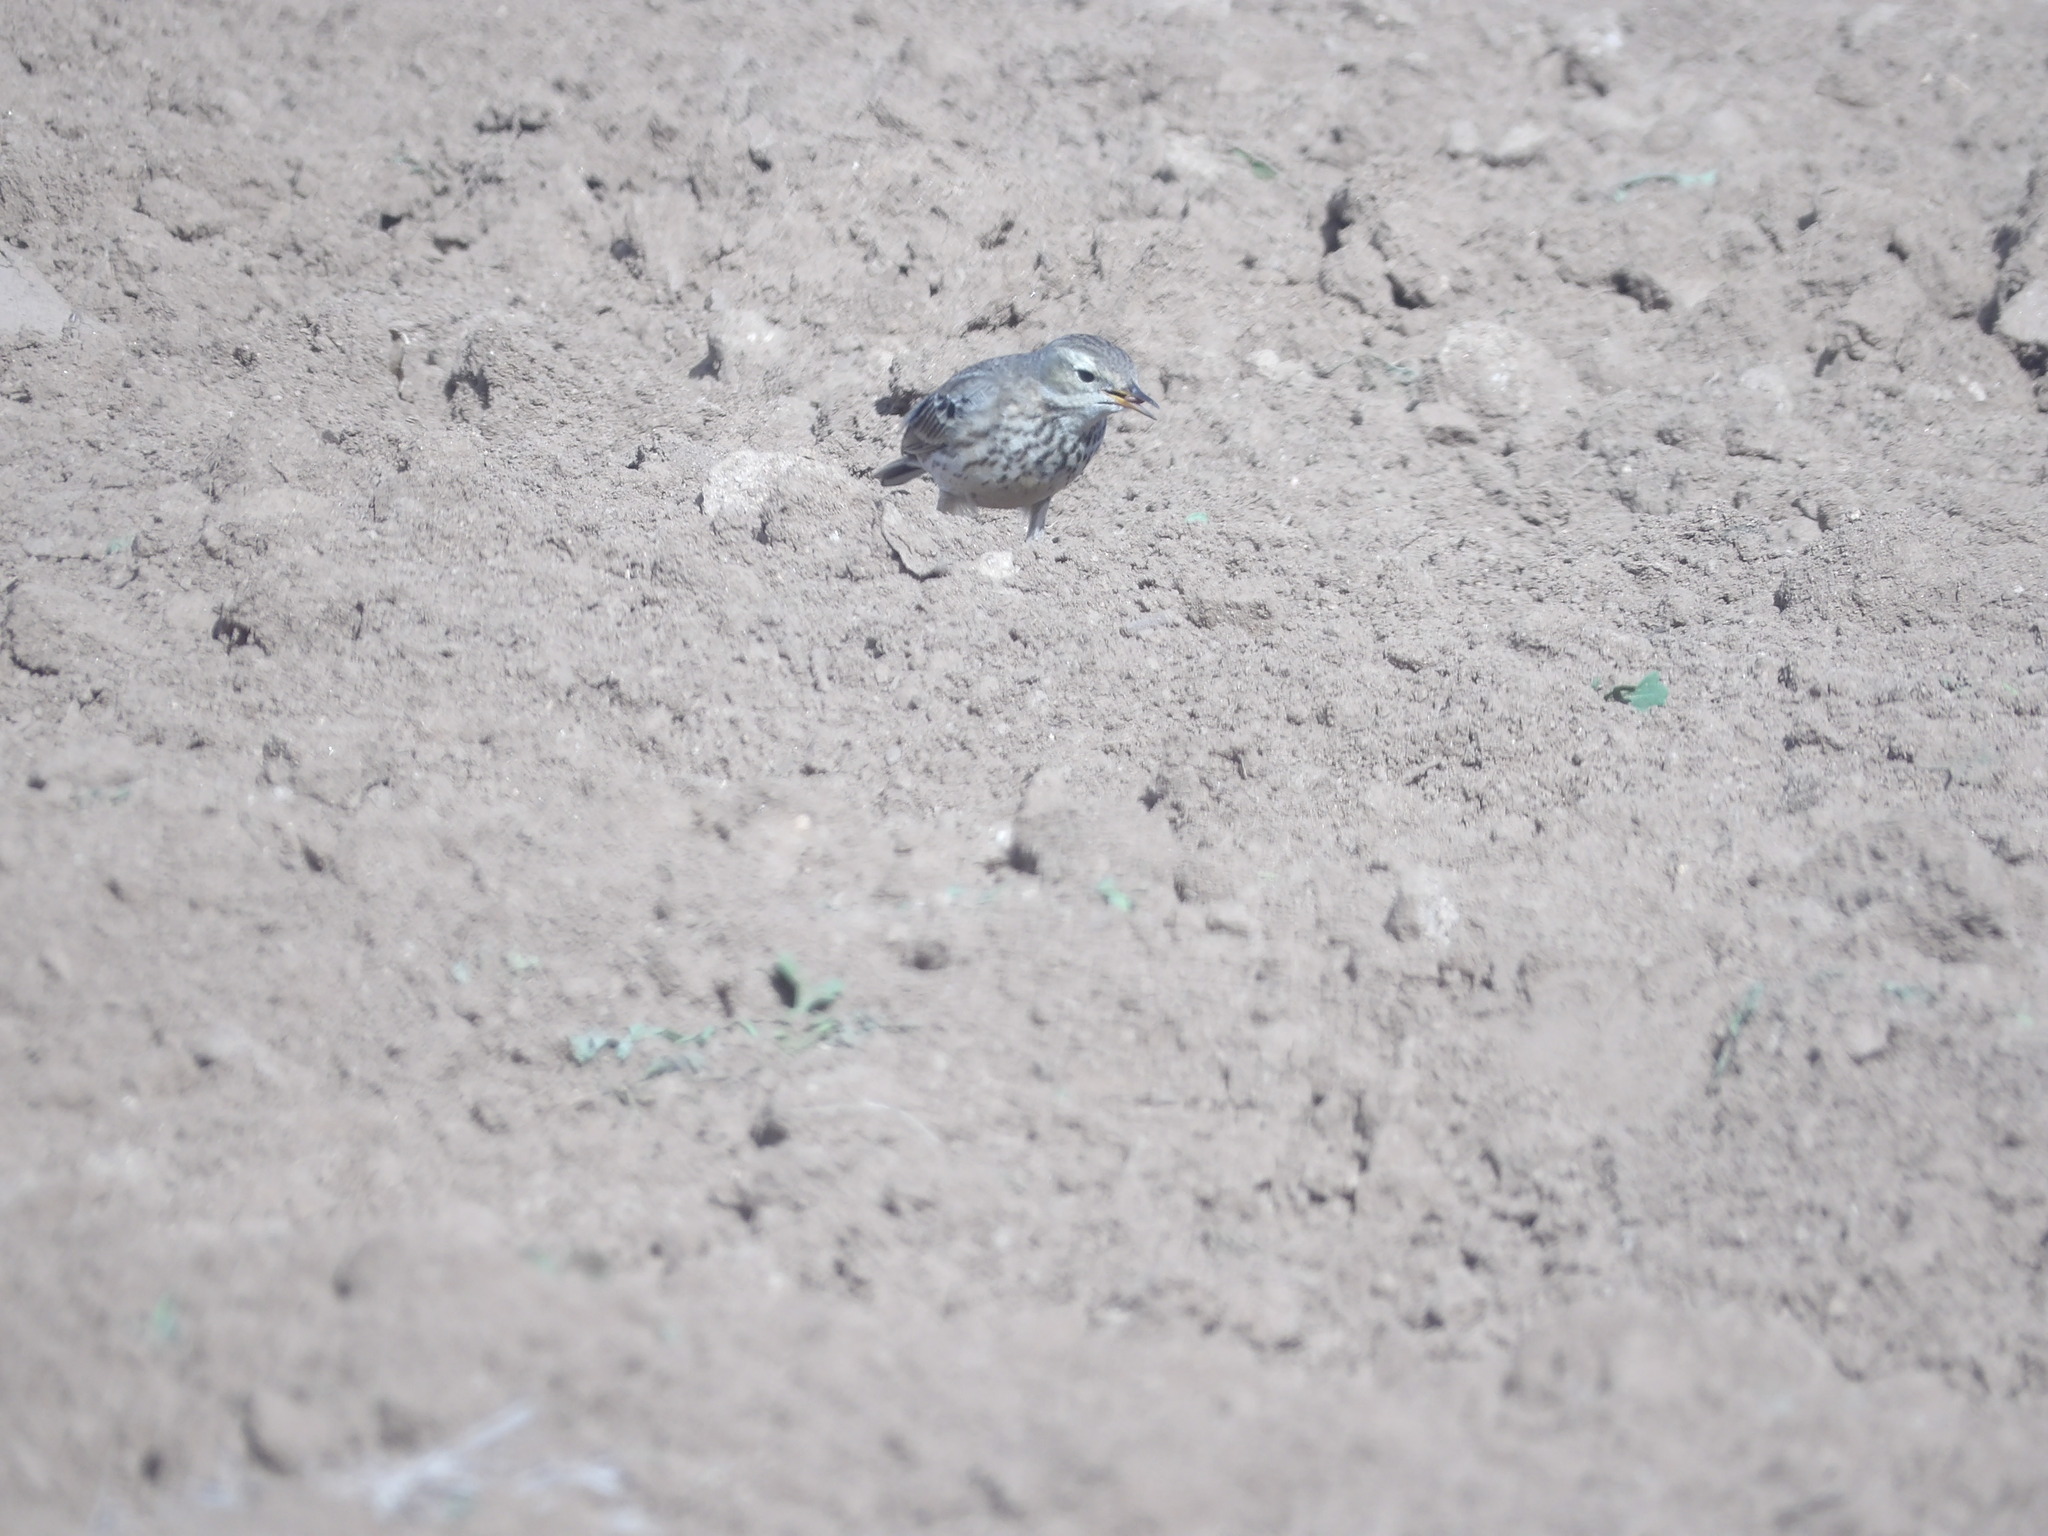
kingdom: Animalia
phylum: Chordata
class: Aves
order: Passeriformes
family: Motacillidae
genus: Anthus
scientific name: Anthus rubescens
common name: Buff-bellied pipit
